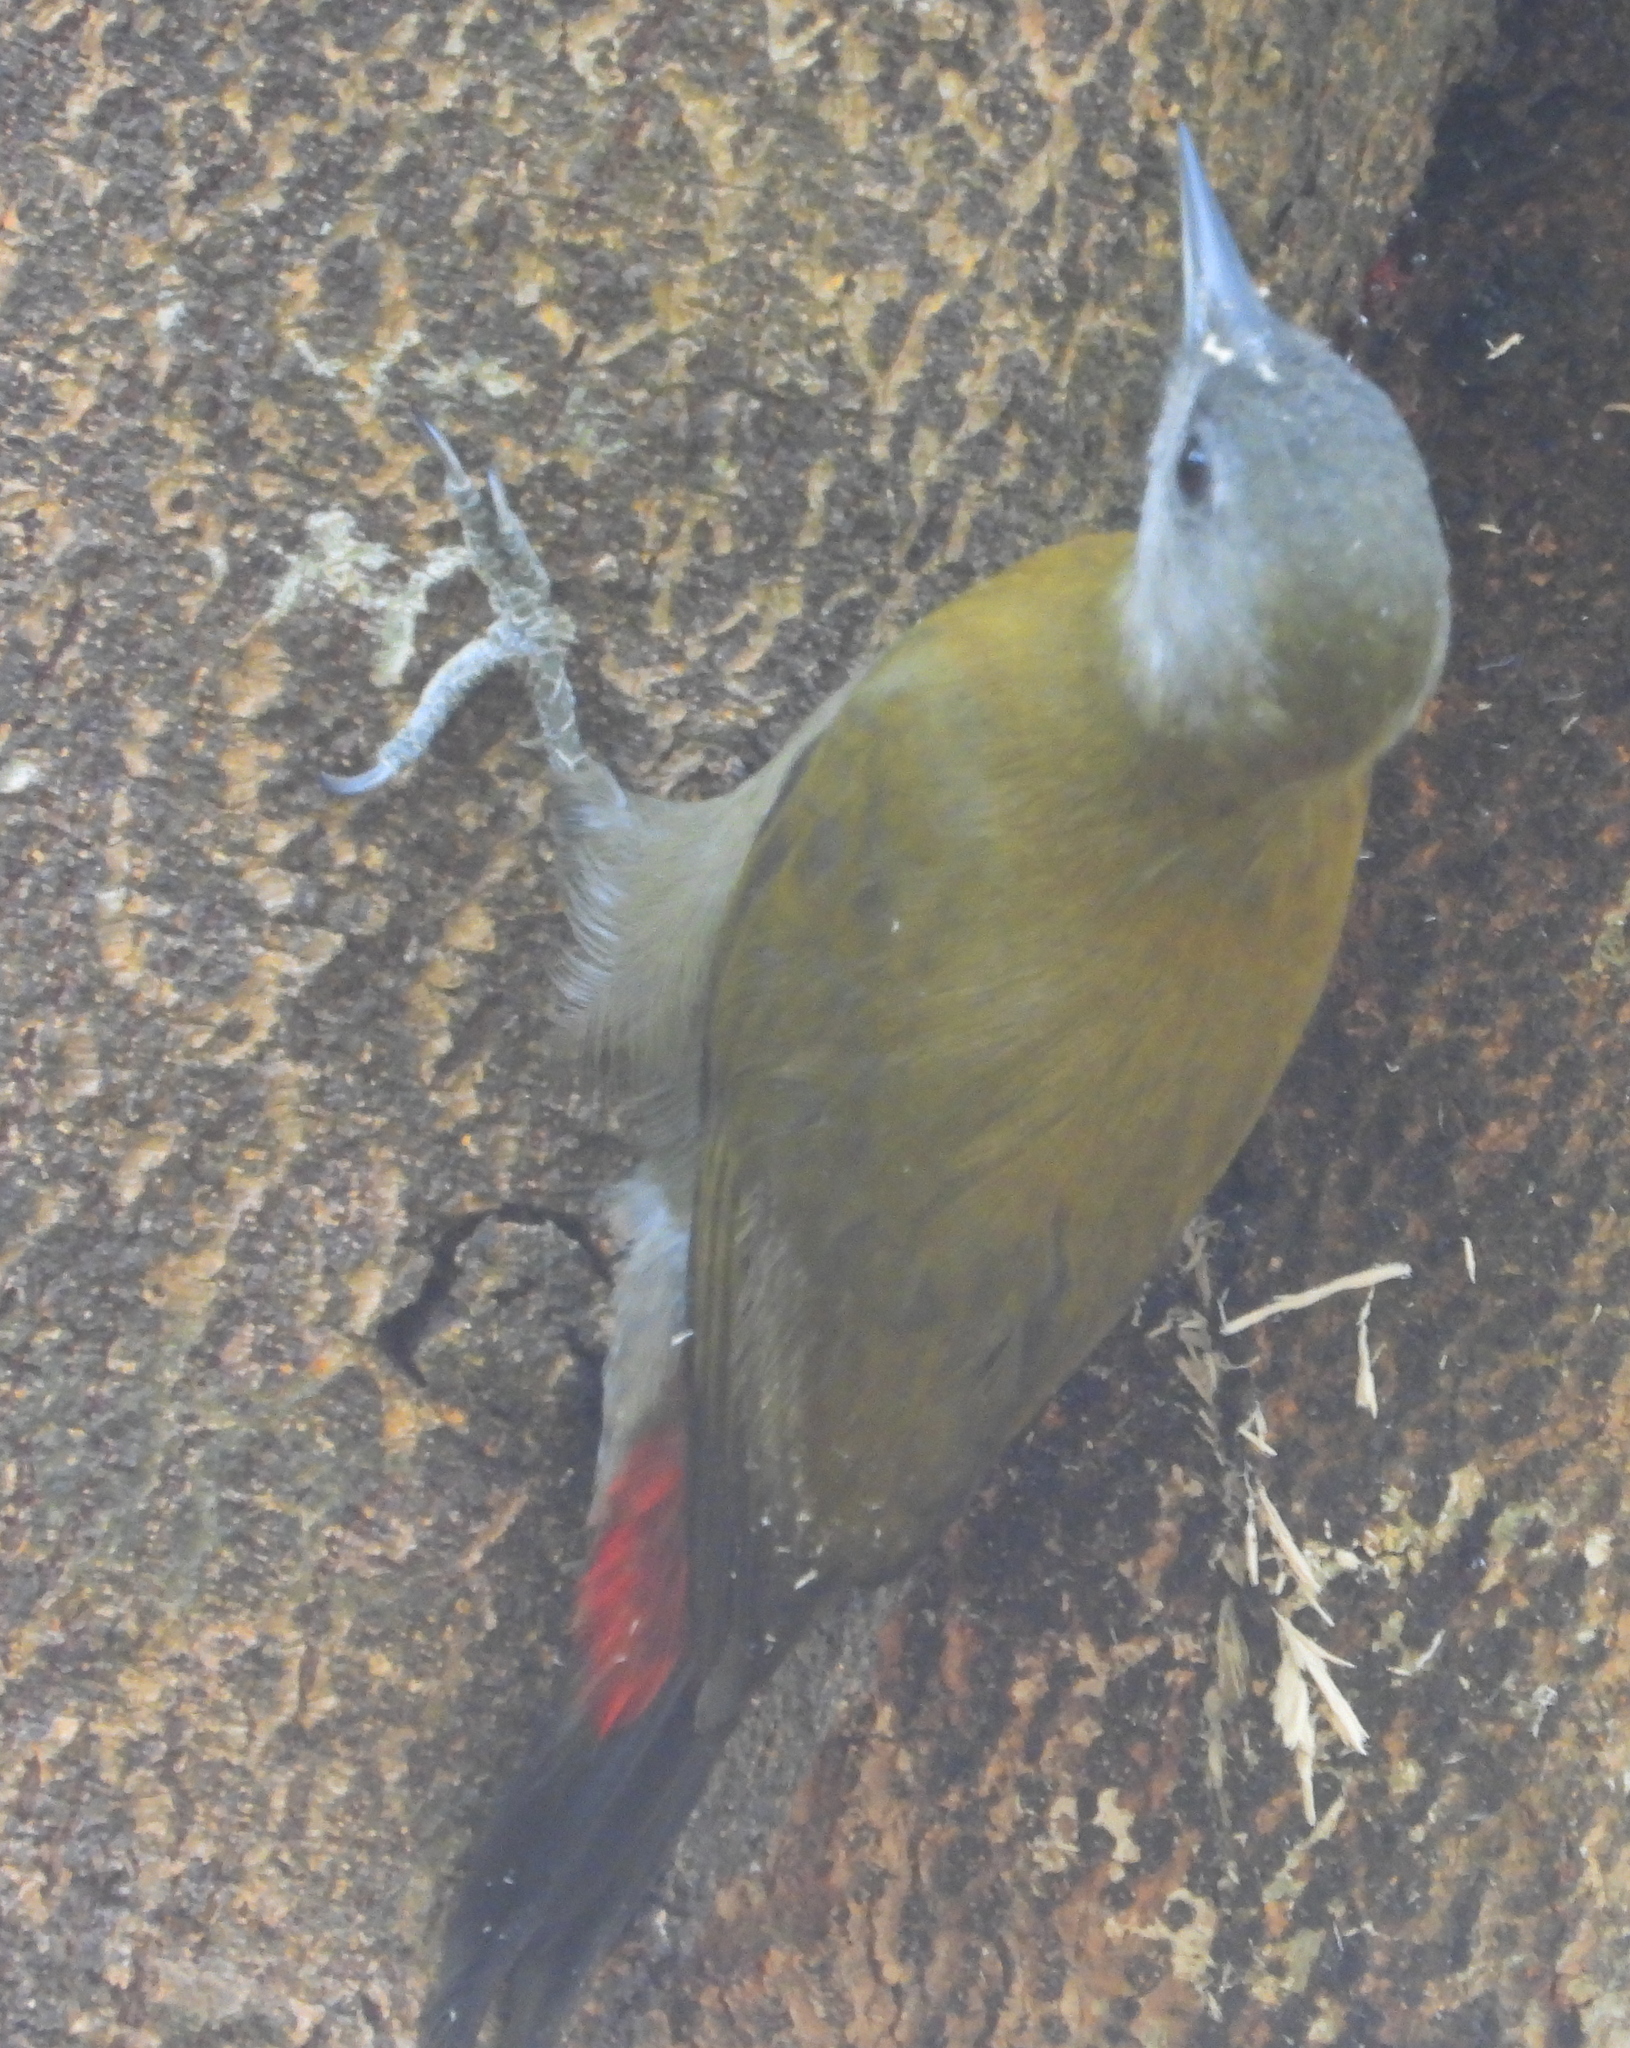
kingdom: Animalia
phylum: Chordata
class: Aves
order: Piciformes
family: Picidae
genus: Dendropicos
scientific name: Dendropicos griseocephalus
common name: Olive woodpecker
